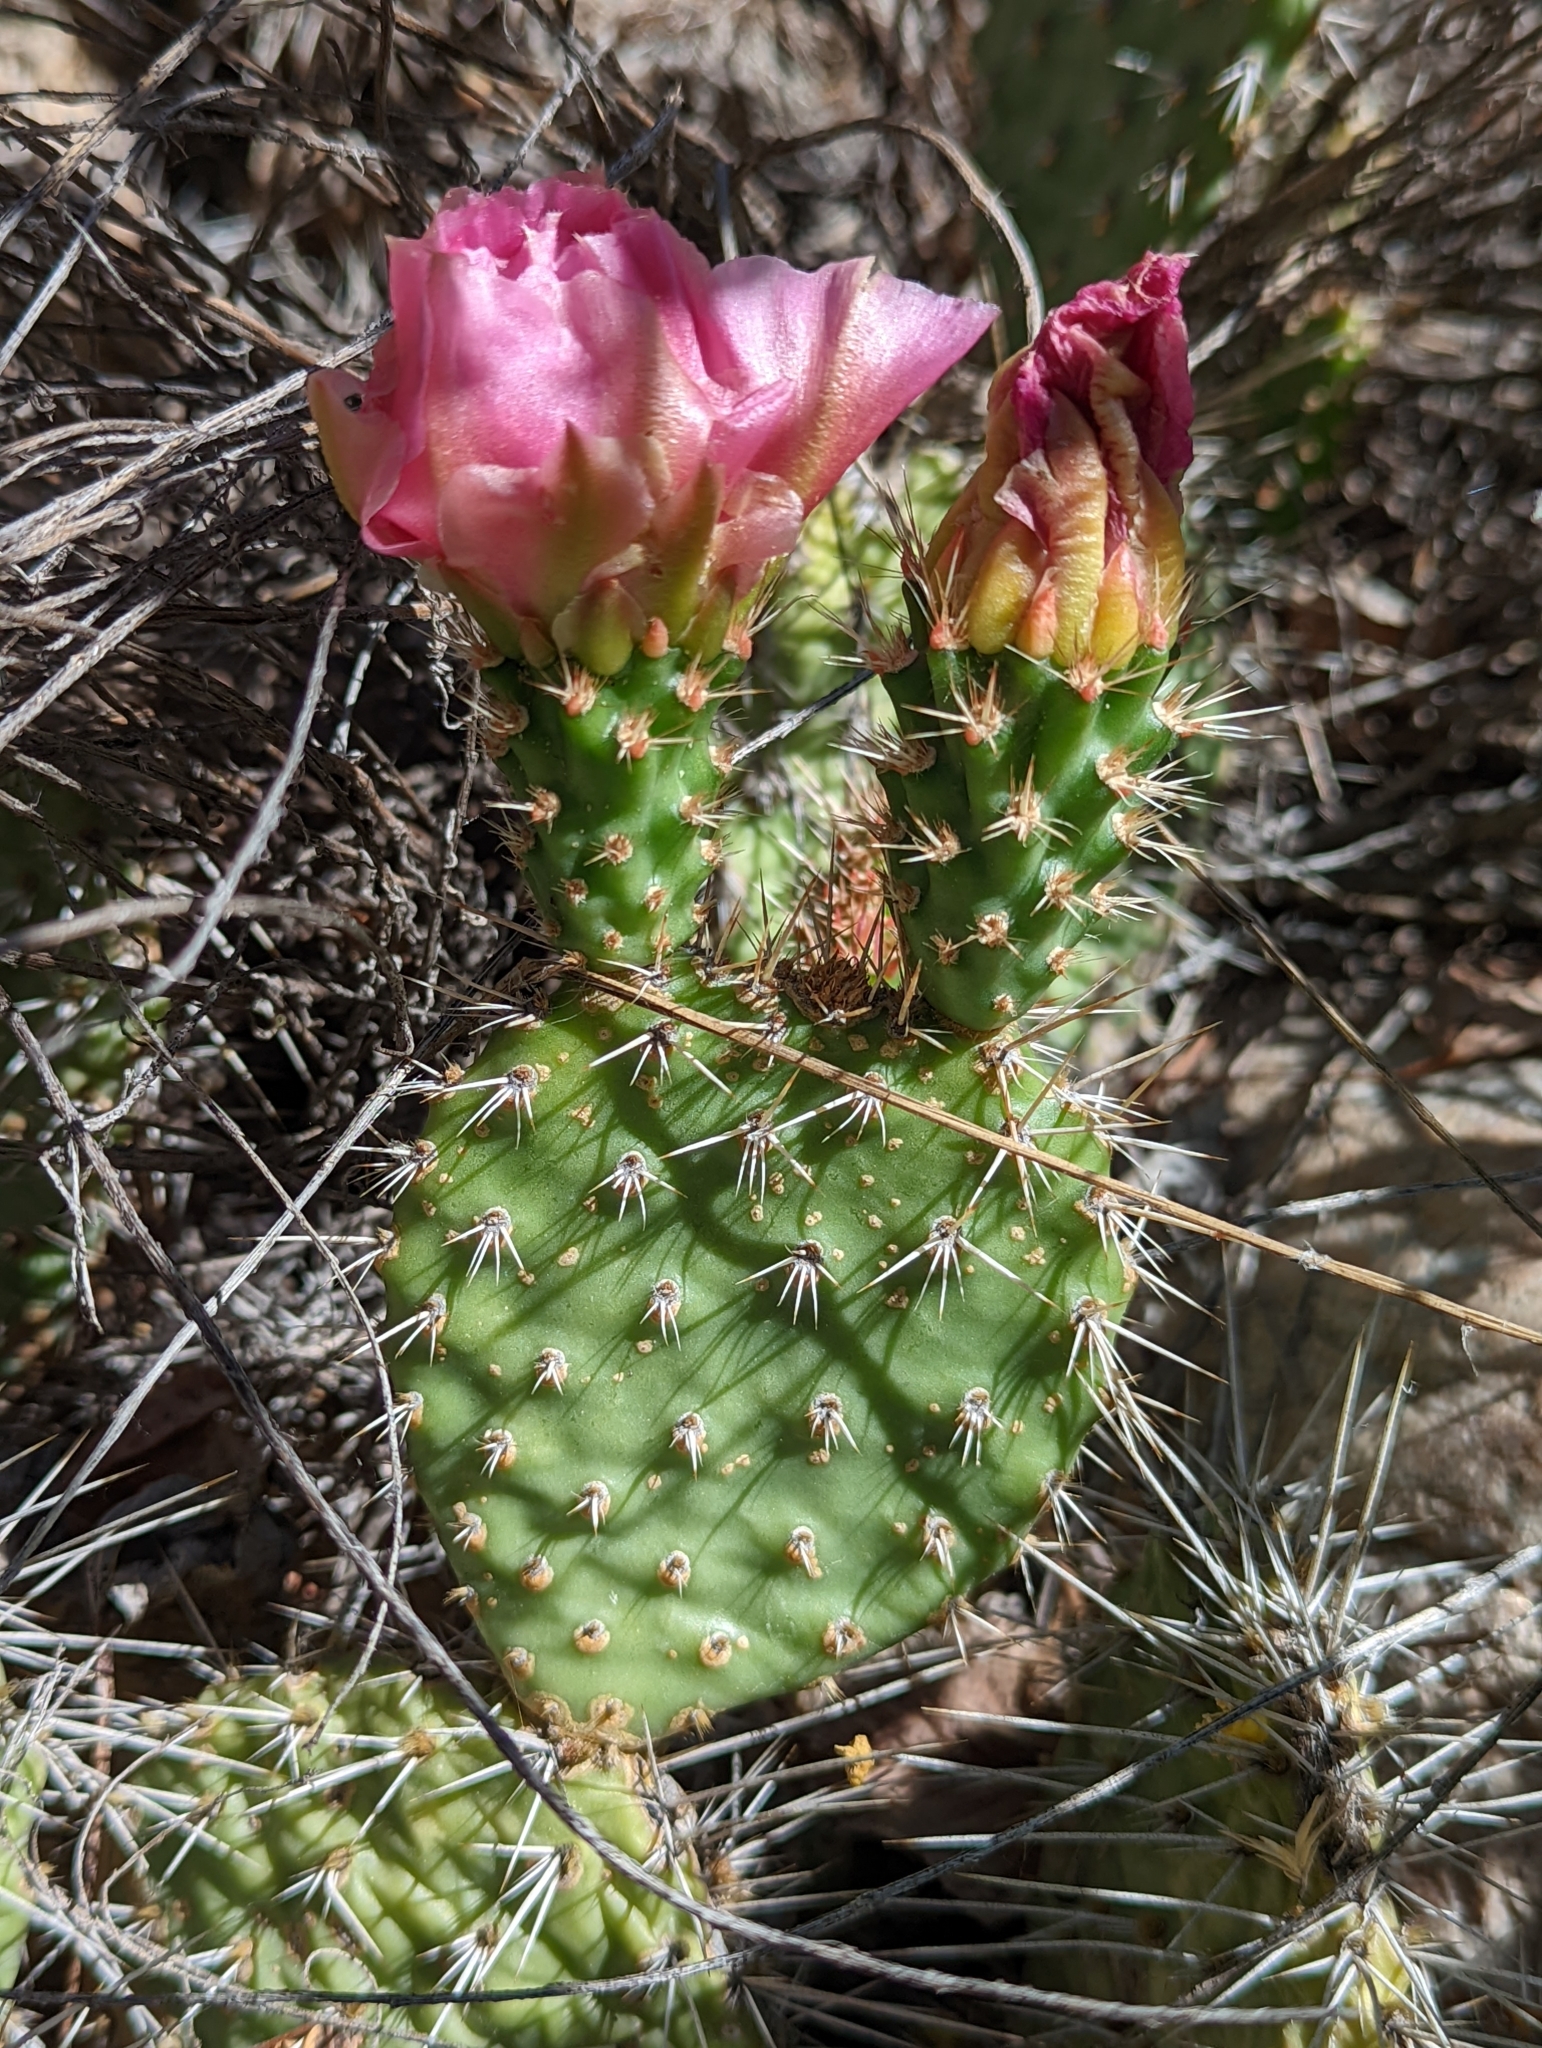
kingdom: Plantae
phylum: Tracheophyta
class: Magnoliopsida
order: Caryophyllales
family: Cactaceae
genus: Opuntia
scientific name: Opuntia polyacantha
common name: Plains prickly-pear
